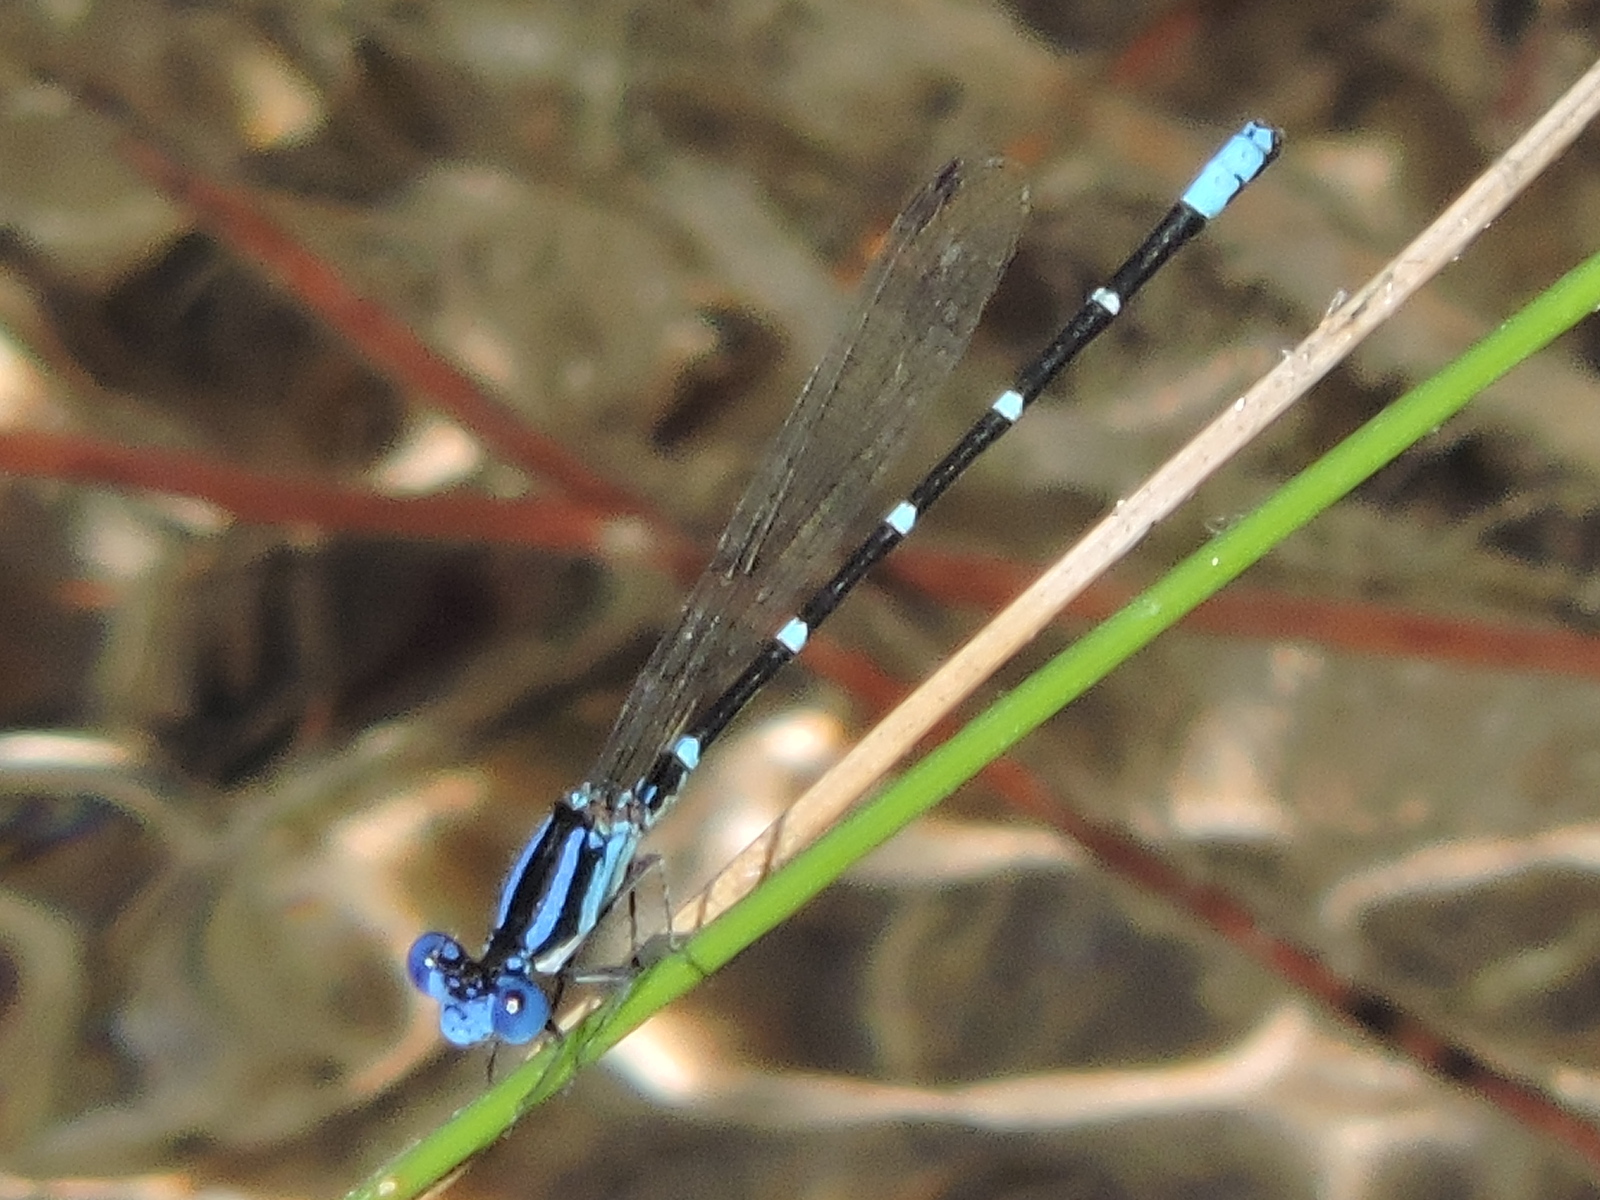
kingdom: Animalia
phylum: Arthropoda
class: Insecta
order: Odonata
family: Coenagrionidae
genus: Argia
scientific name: Argia sedula
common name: Blue-ringed dancer
